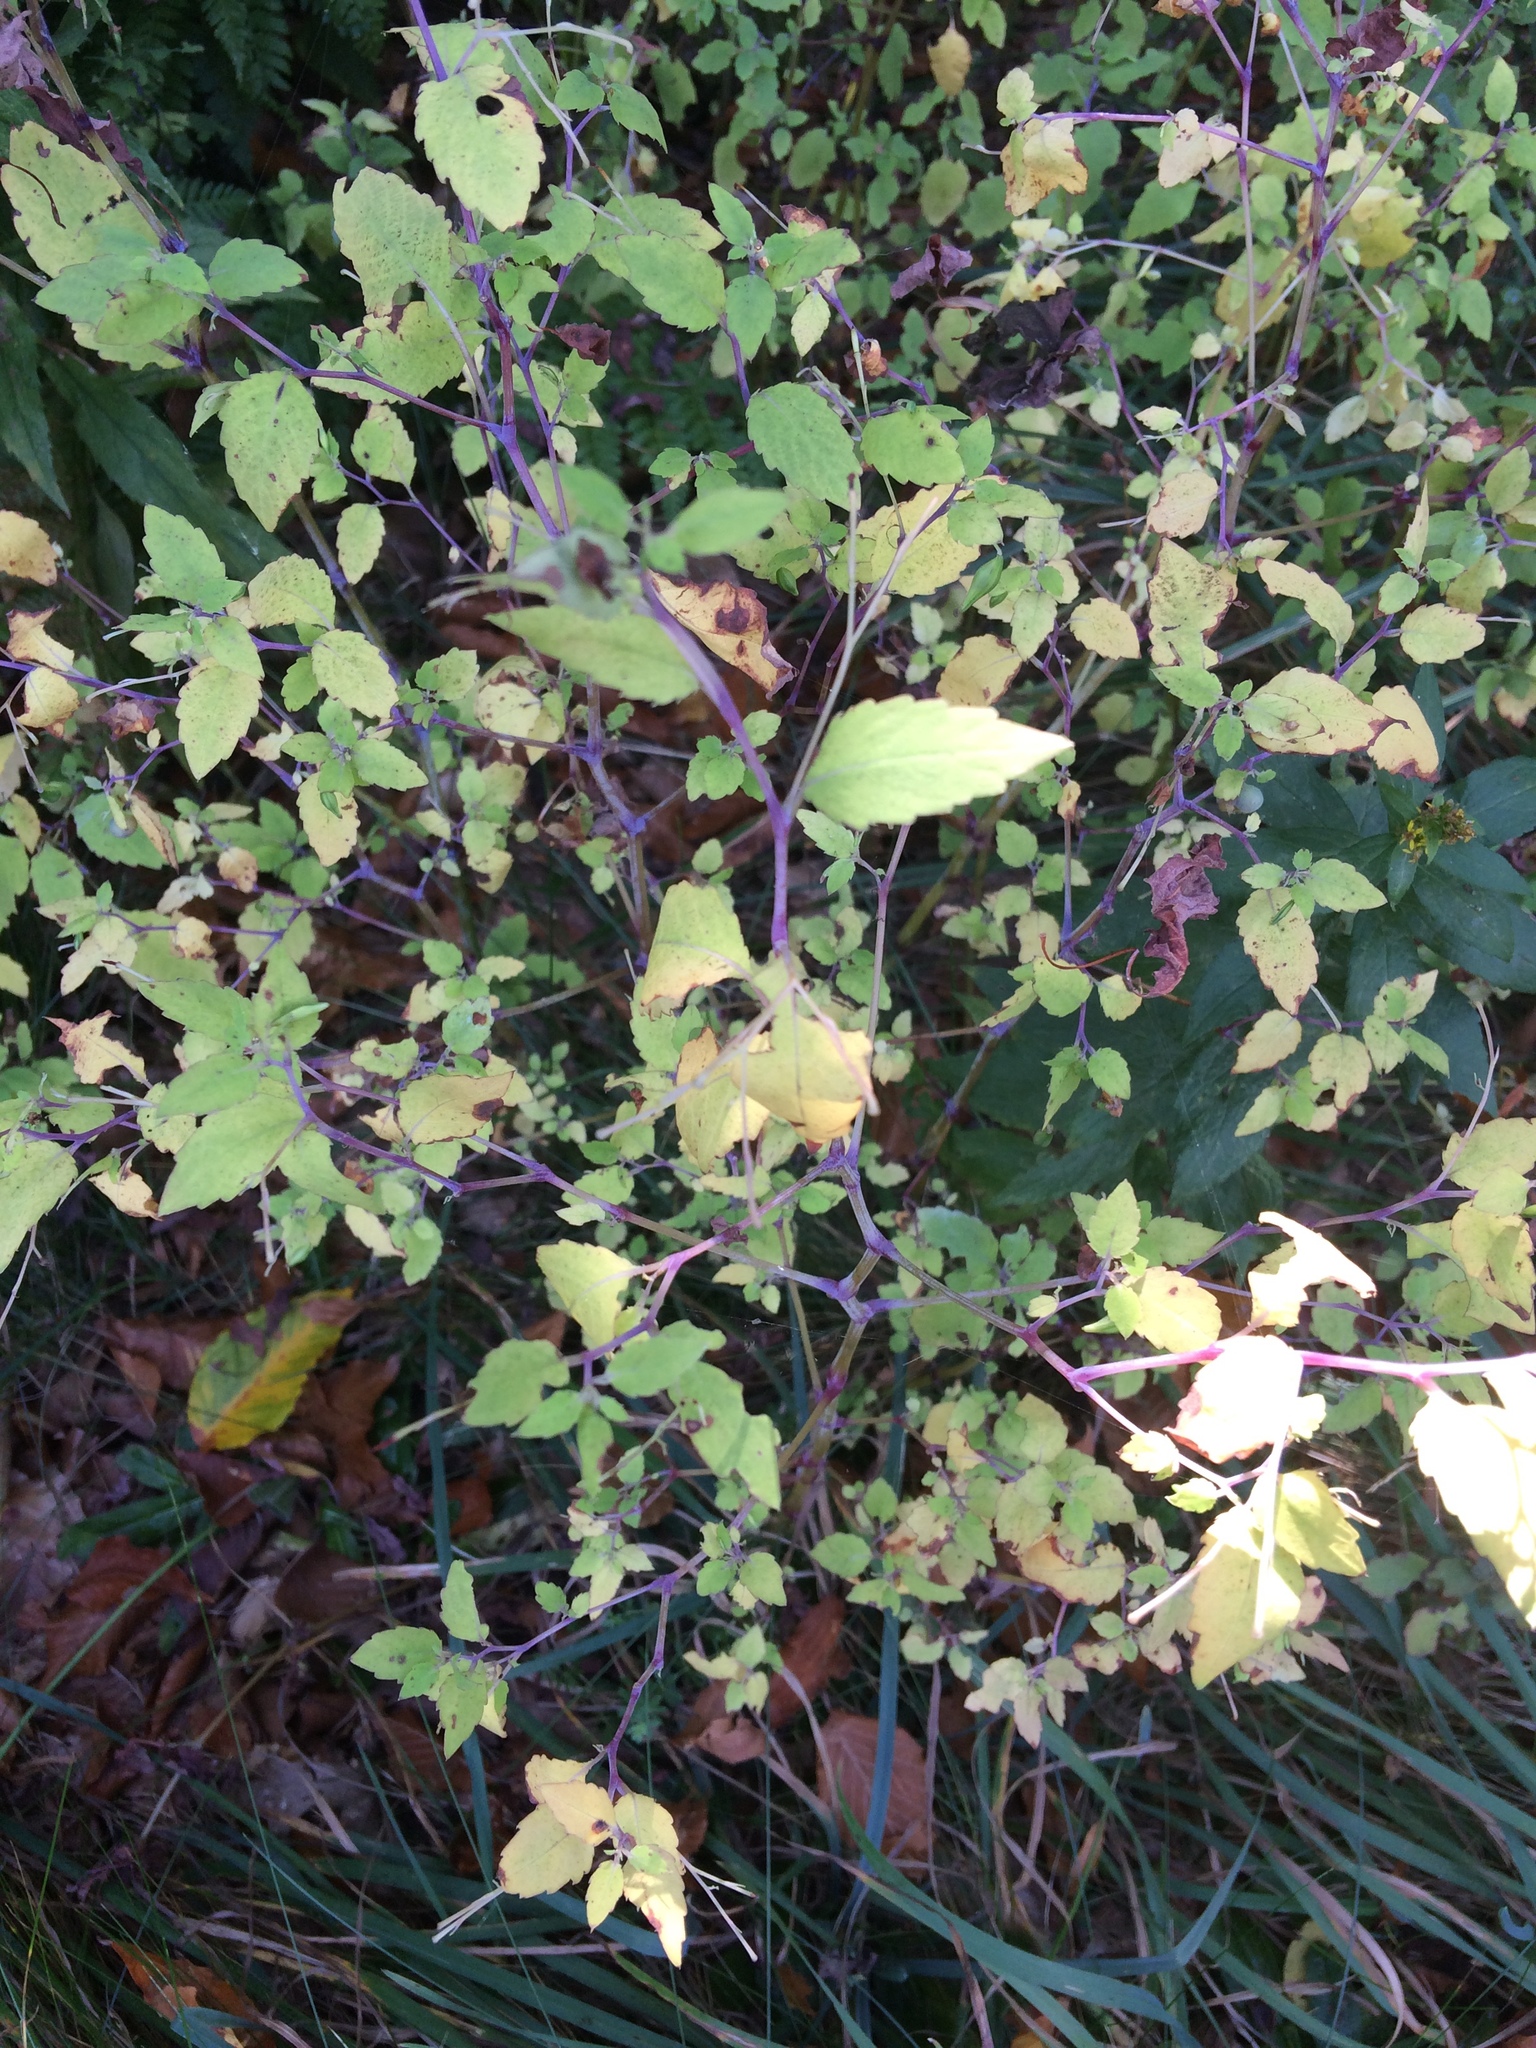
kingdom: Plantae
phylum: Tracheophyta
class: Magnoliopsida
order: Ericales
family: Balsaminaceae
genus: Impatiens
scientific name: Impatiens capensis
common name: Orange balsam
